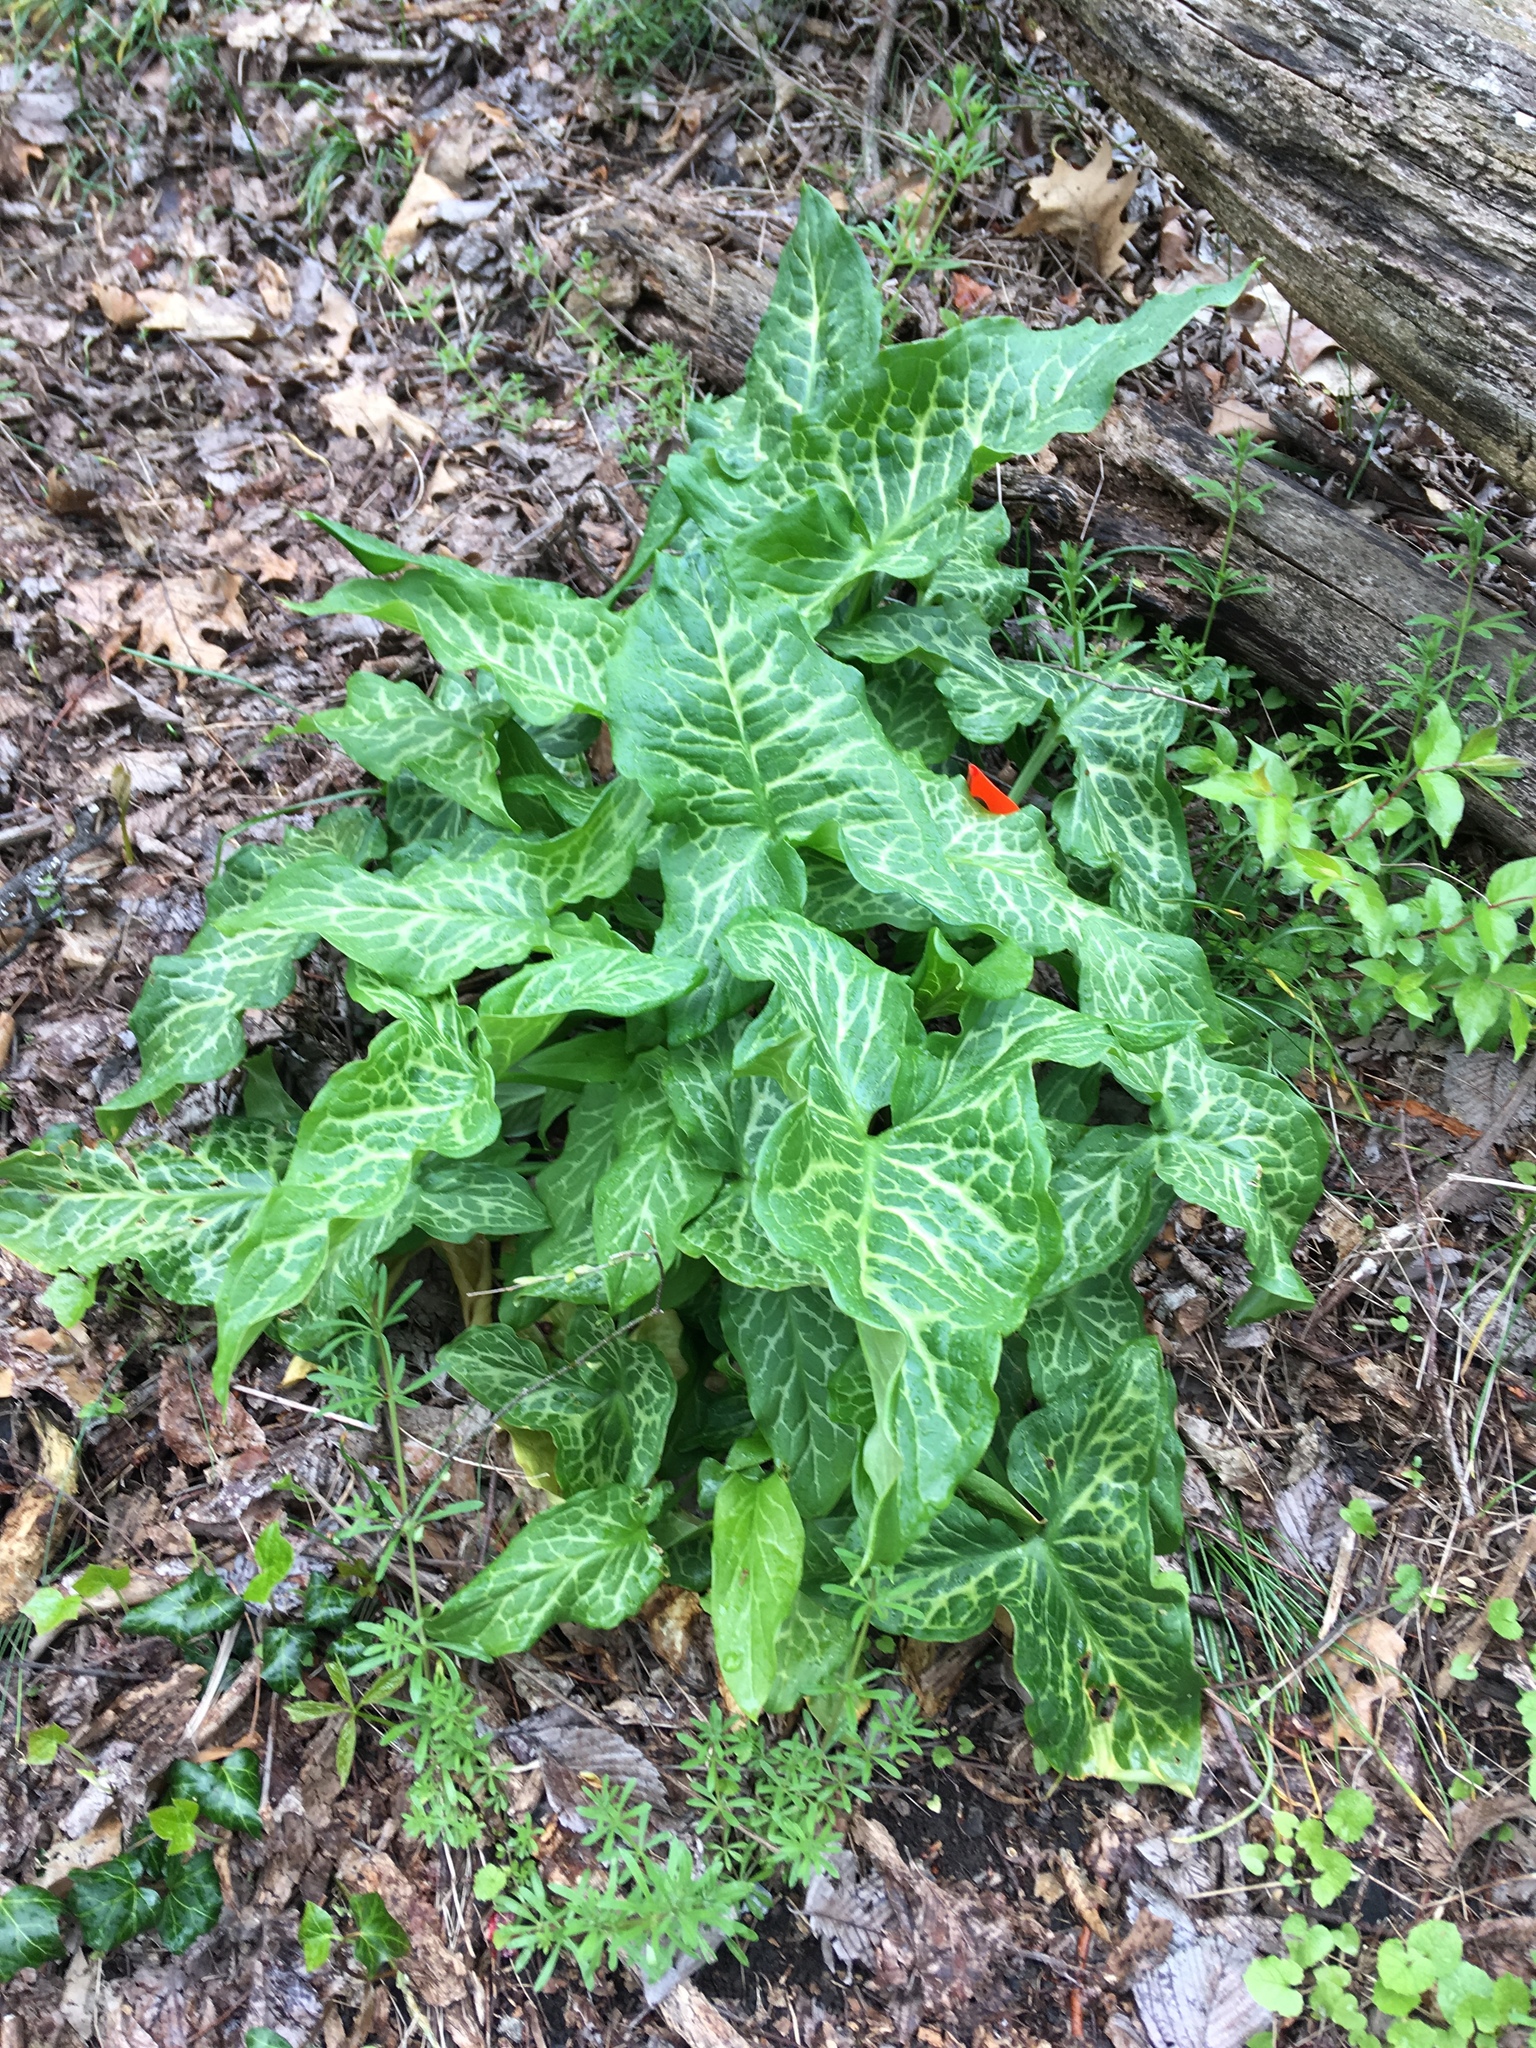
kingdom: Plantae
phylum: Tracheophyta
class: Liliopsida
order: Alismatales
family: Araceae
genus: Arum
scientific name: Arum italicum
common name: Italian lords-and-ladies
